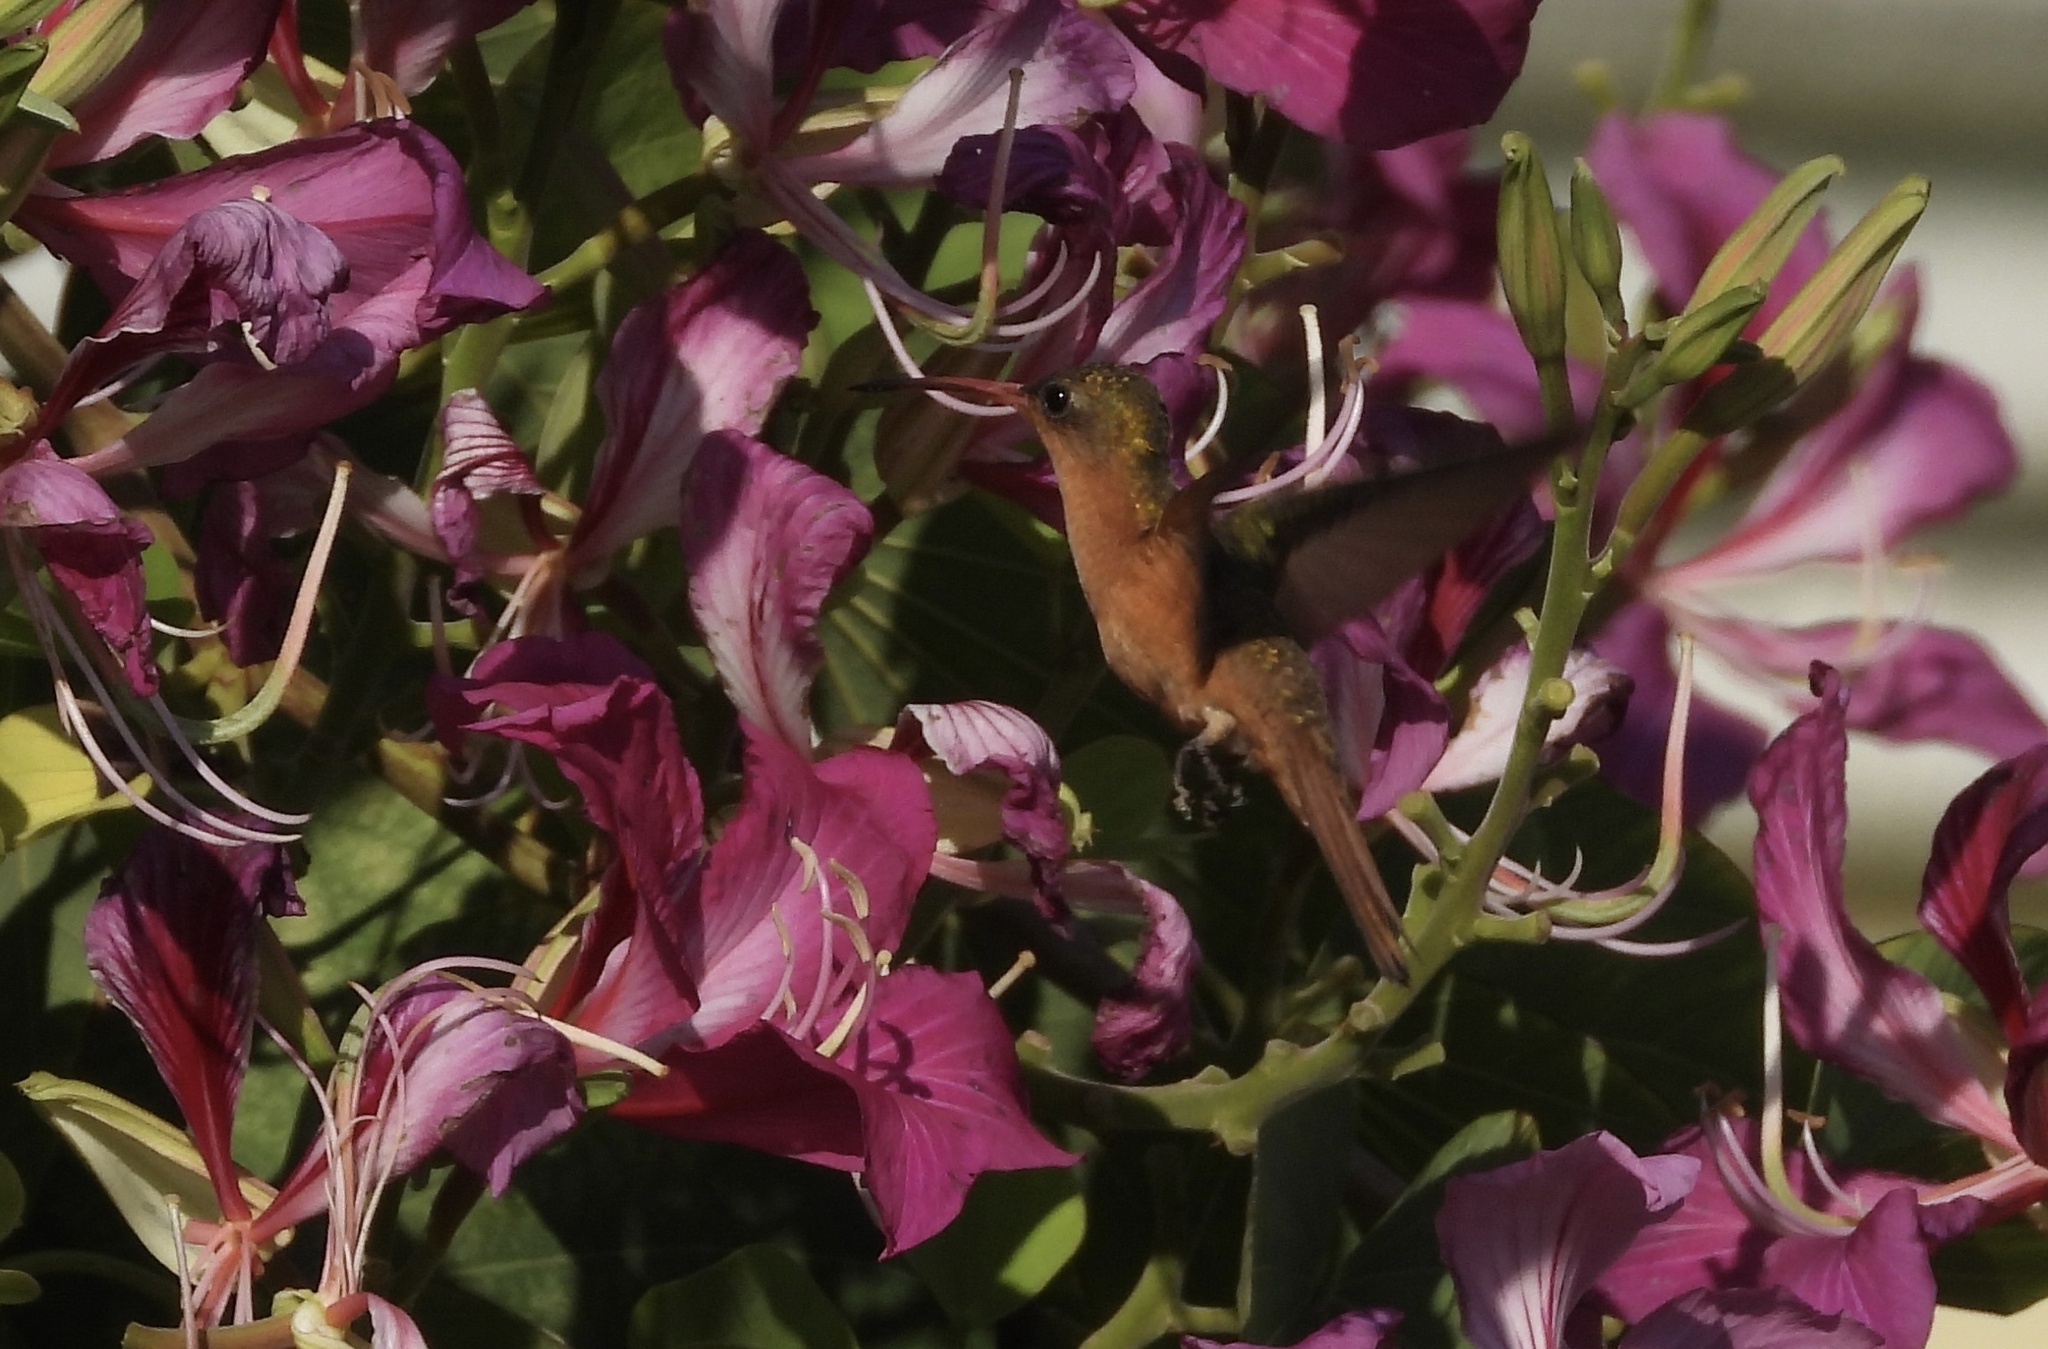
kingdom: Animalia
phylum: Chordata
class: Aves
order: Apodiformes
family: Trochilidae
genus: Amazilia
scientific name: Amazilia rutila
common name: Cinnamon hummingbird
